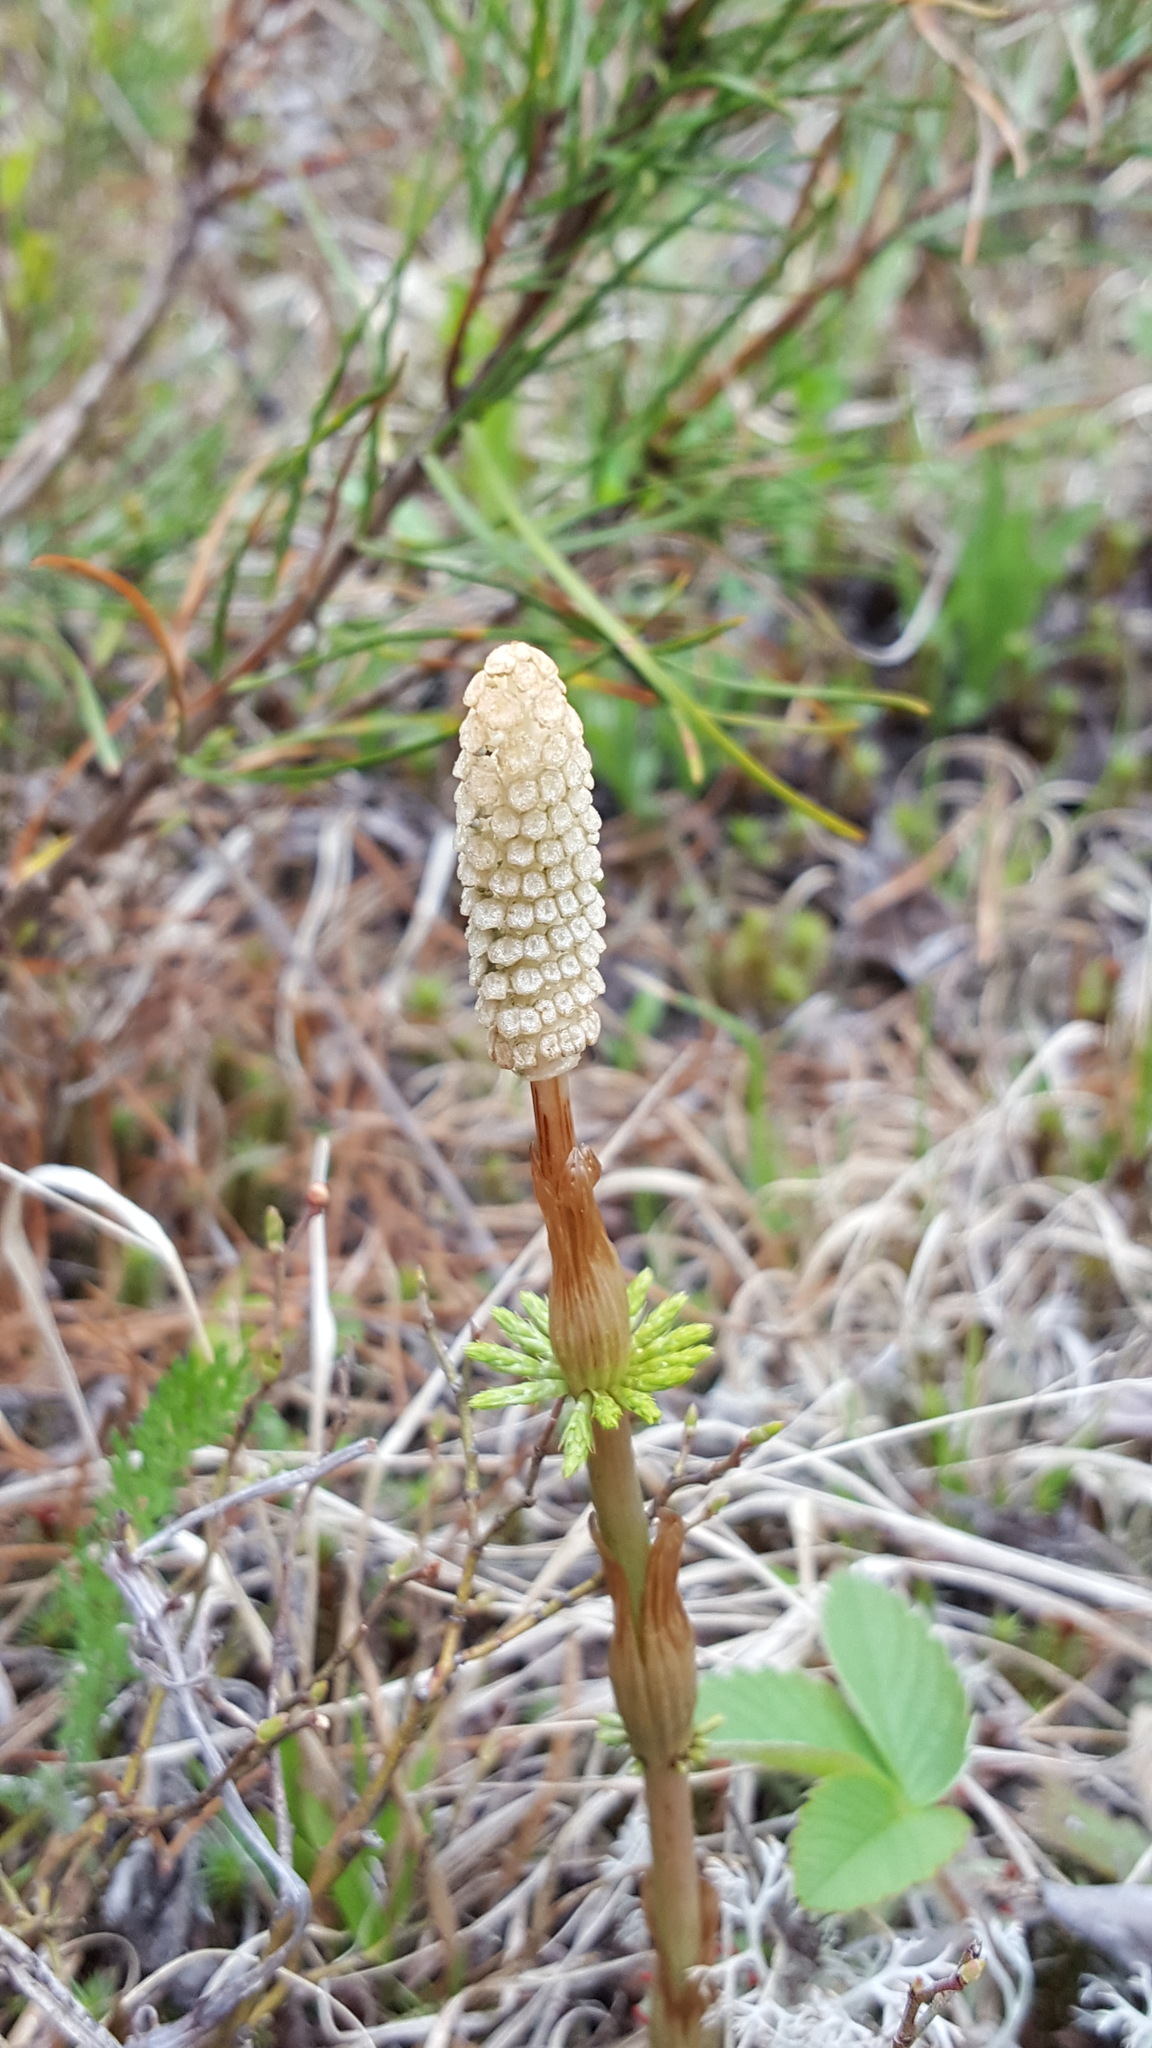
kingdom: Plantae
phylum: Tracheophyta
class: Polypodiopsida
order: Equisetales
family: Equisetaceae
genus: Equisetum
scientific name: Equisetum sylvaticum
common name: Wood horsetail
